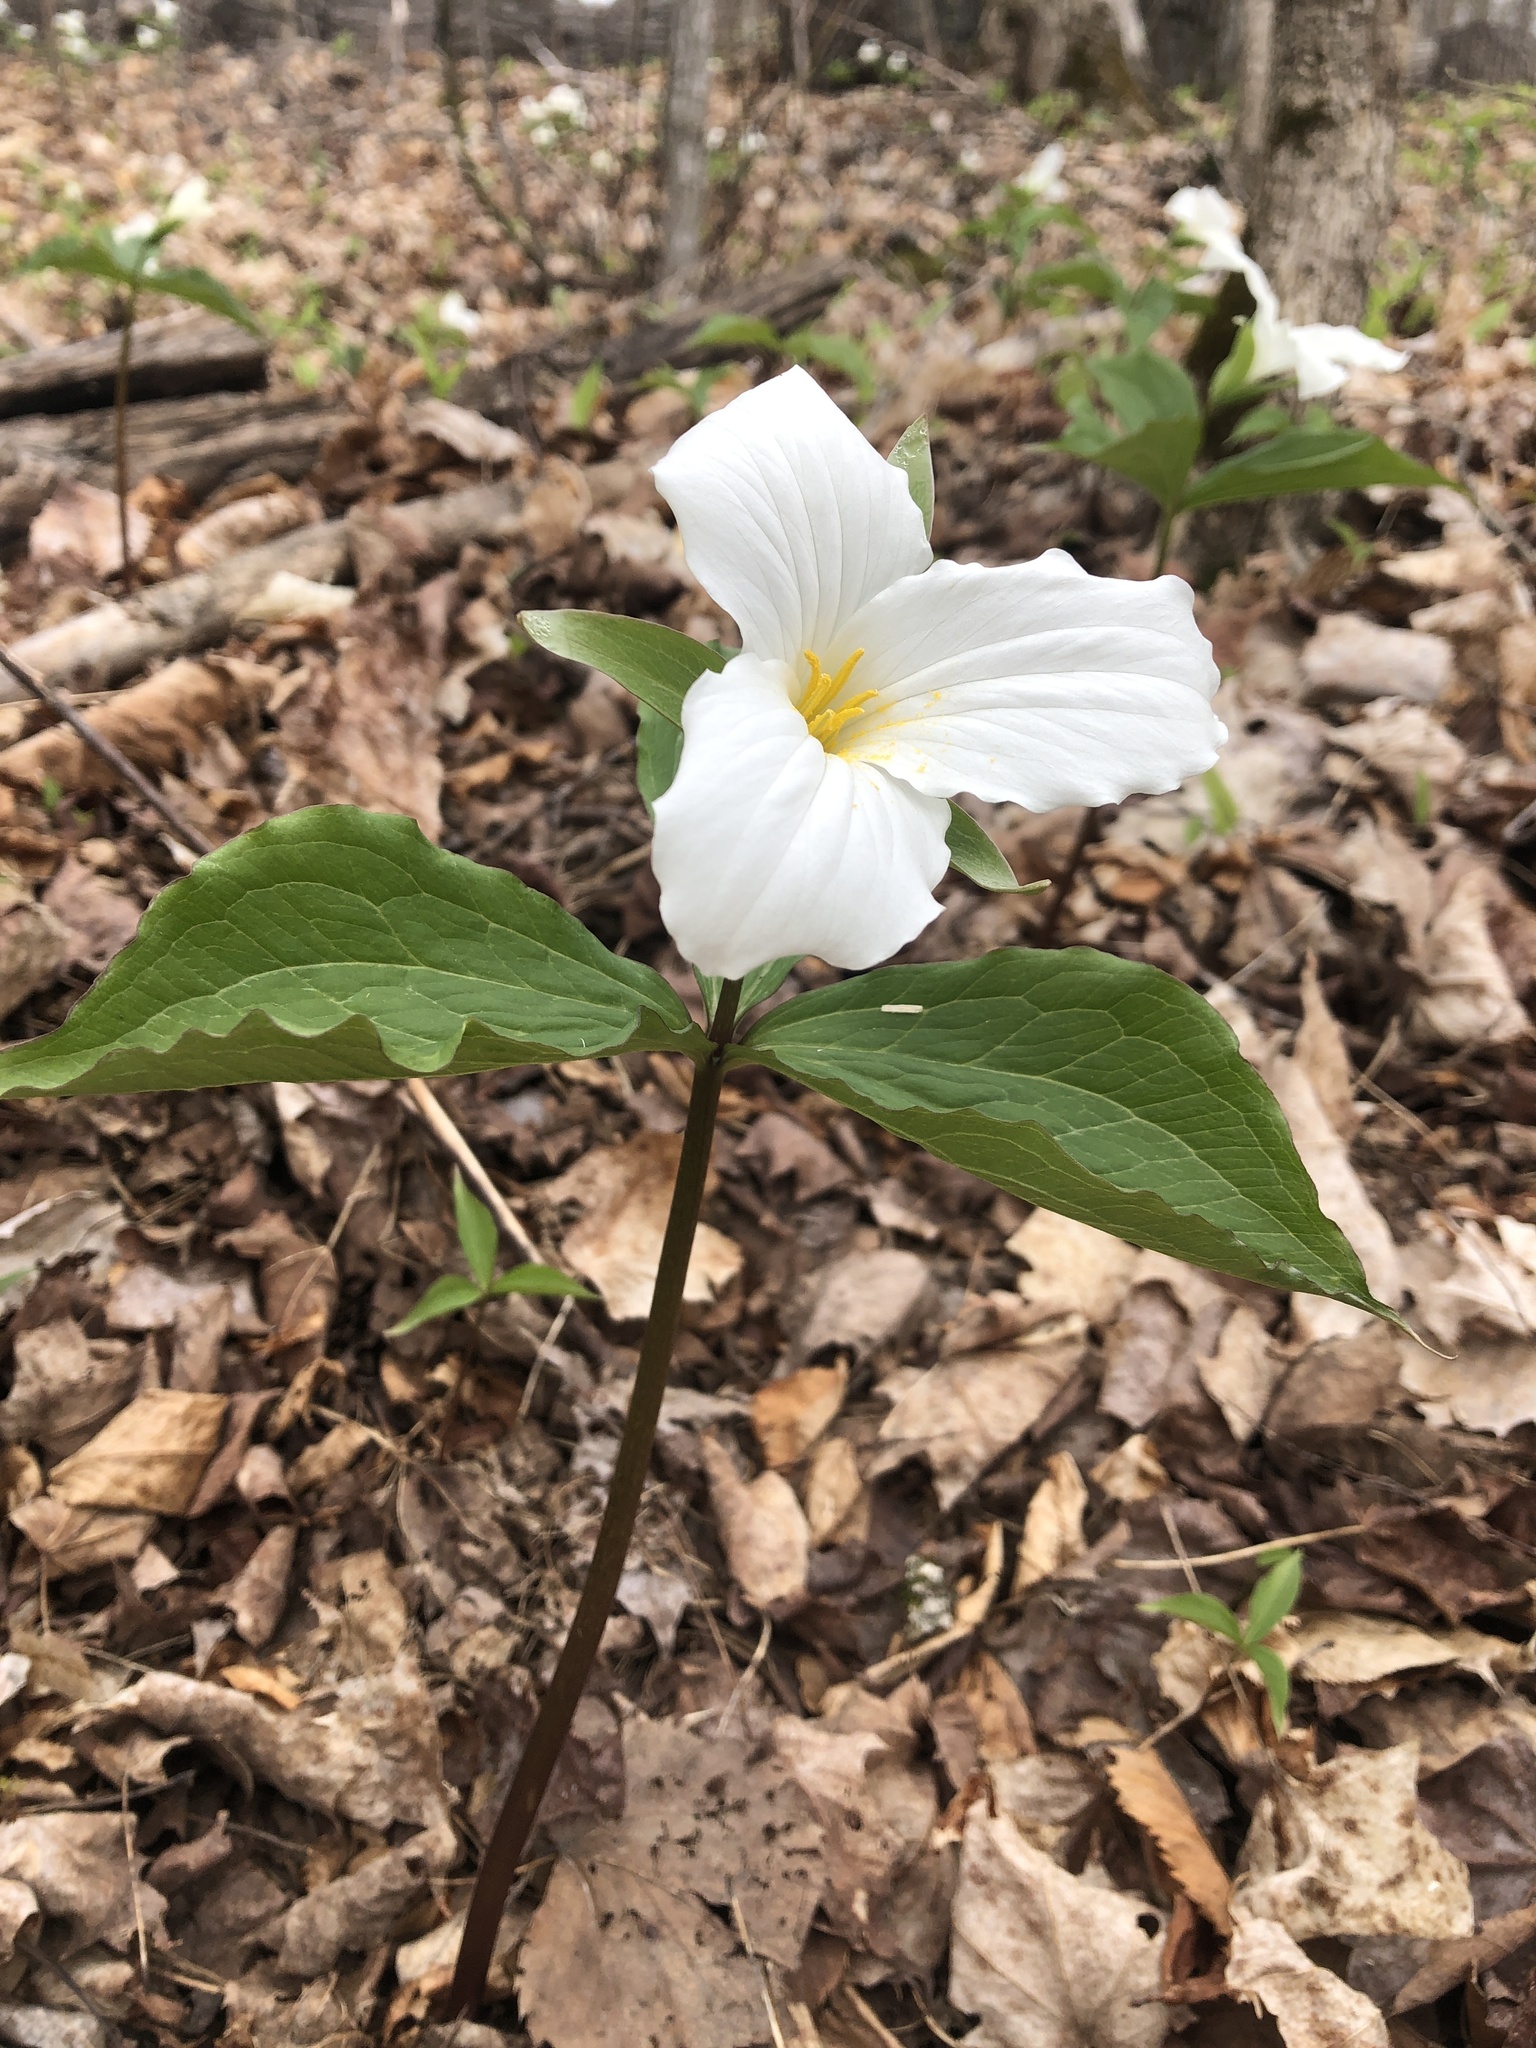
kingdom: Plantae
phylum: Tracheophyta
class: Liliopsida
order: Liliales
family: Melanthiaceae
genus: Trillium
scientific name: Trillium grandiflorum
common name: Great white trillium
